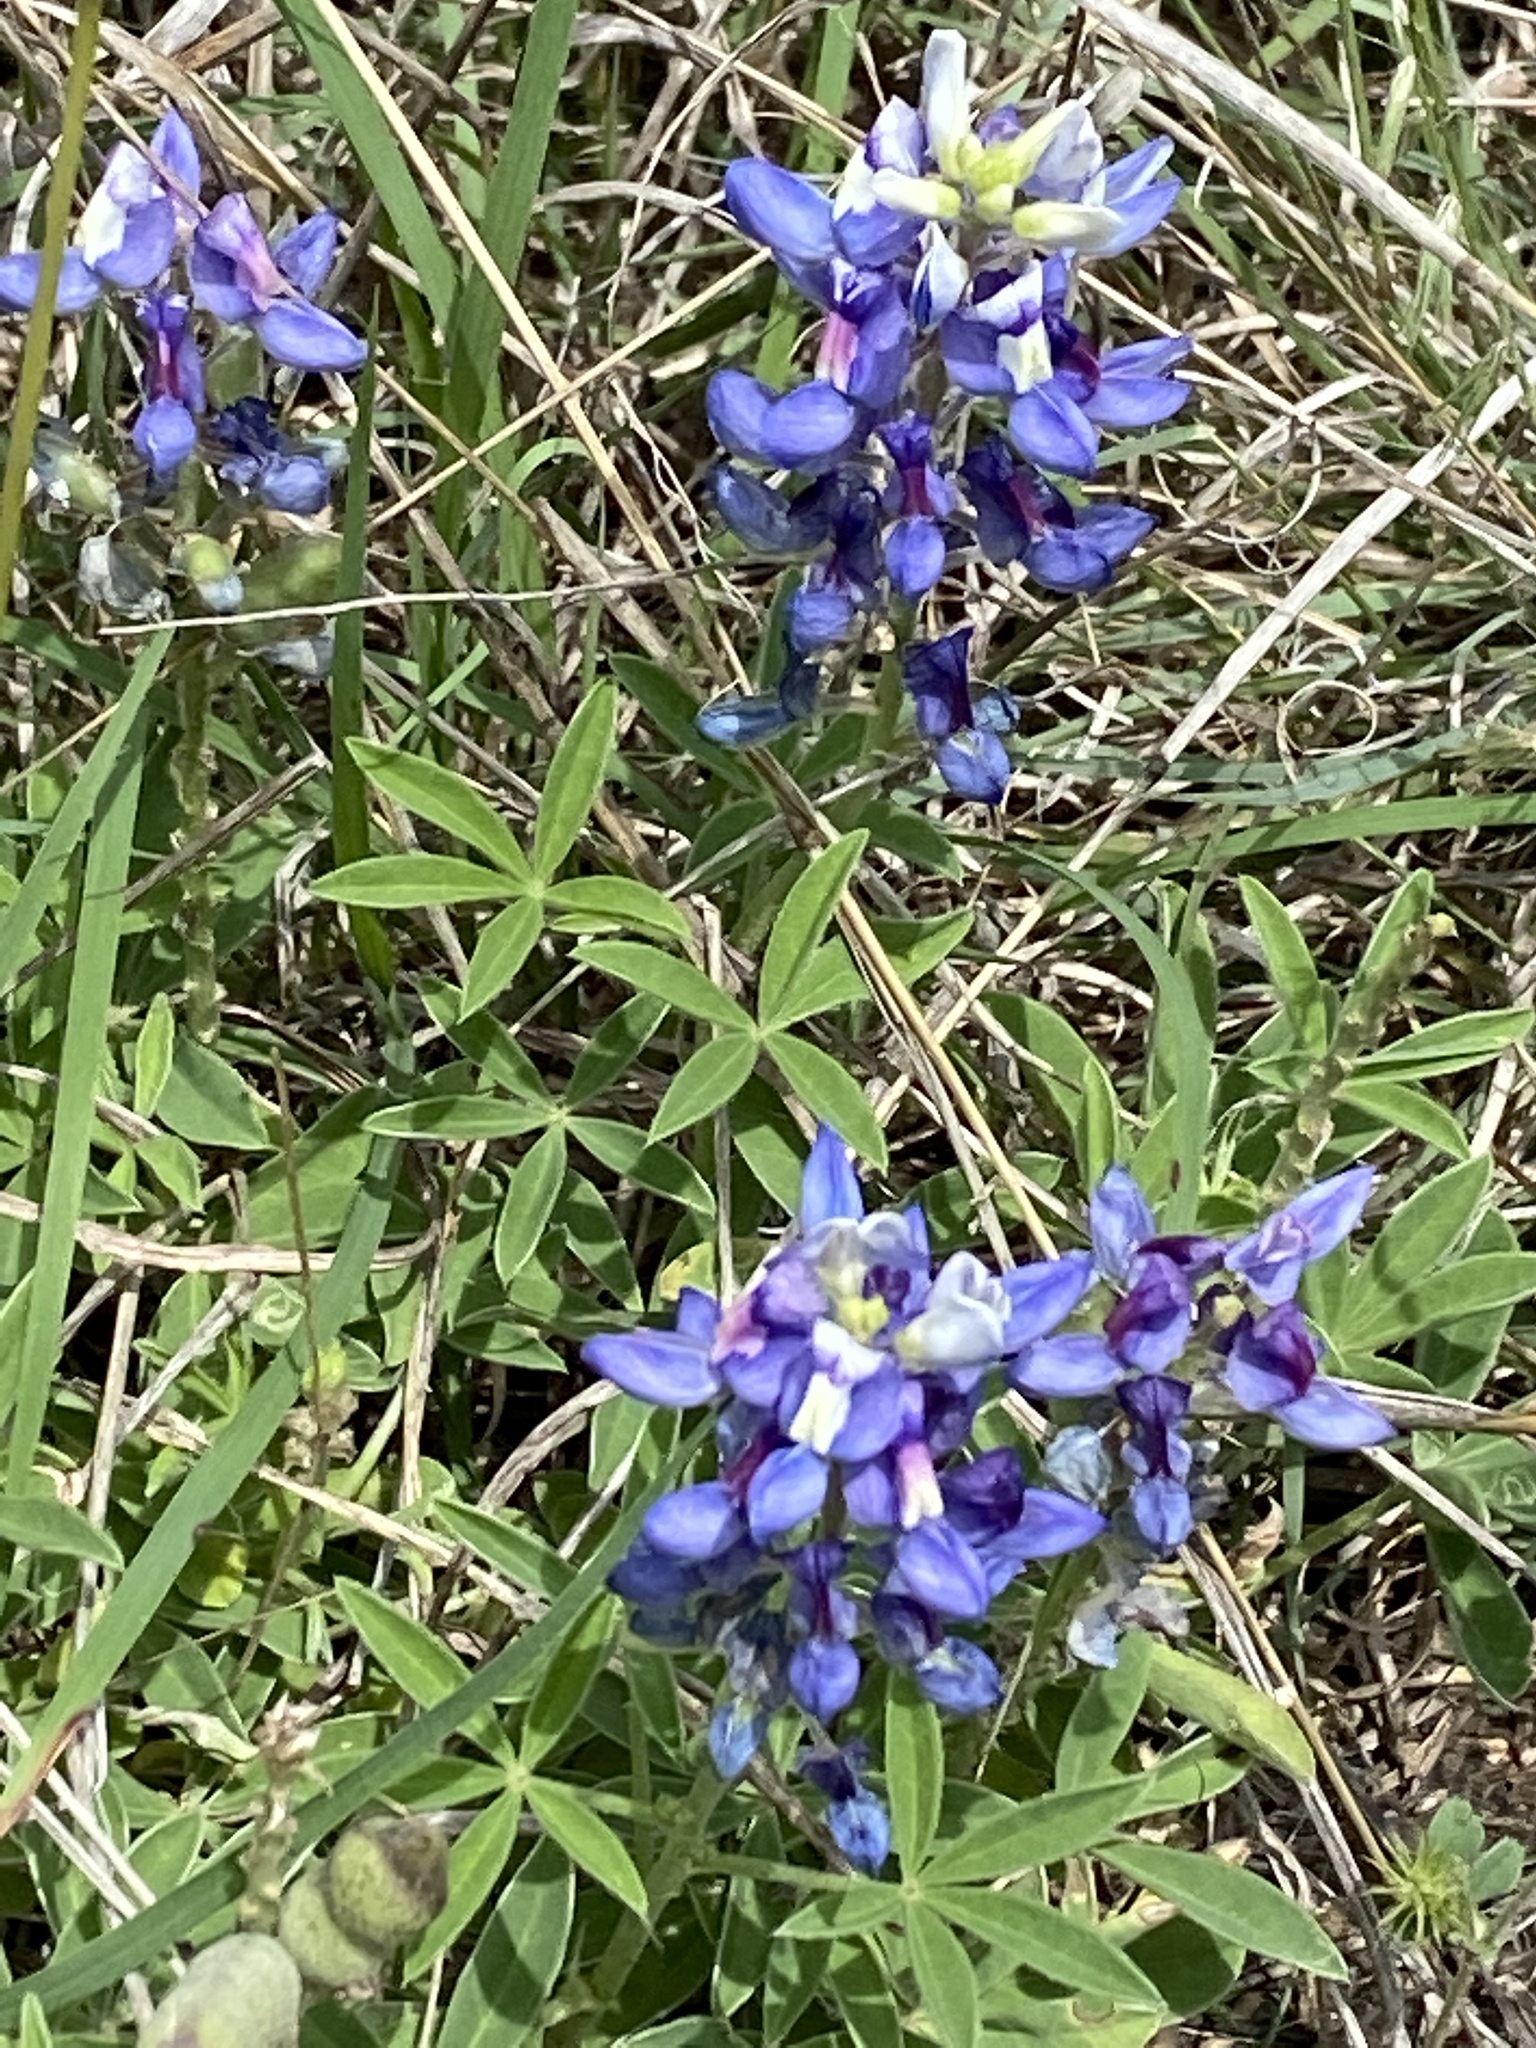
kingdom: Plantae
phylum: Tracheophyta
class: Magnoliopsida
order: Fabales
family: Fabaceae
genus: Lupinus
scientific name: Lupinus texensis
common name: Texas bluebonnet
